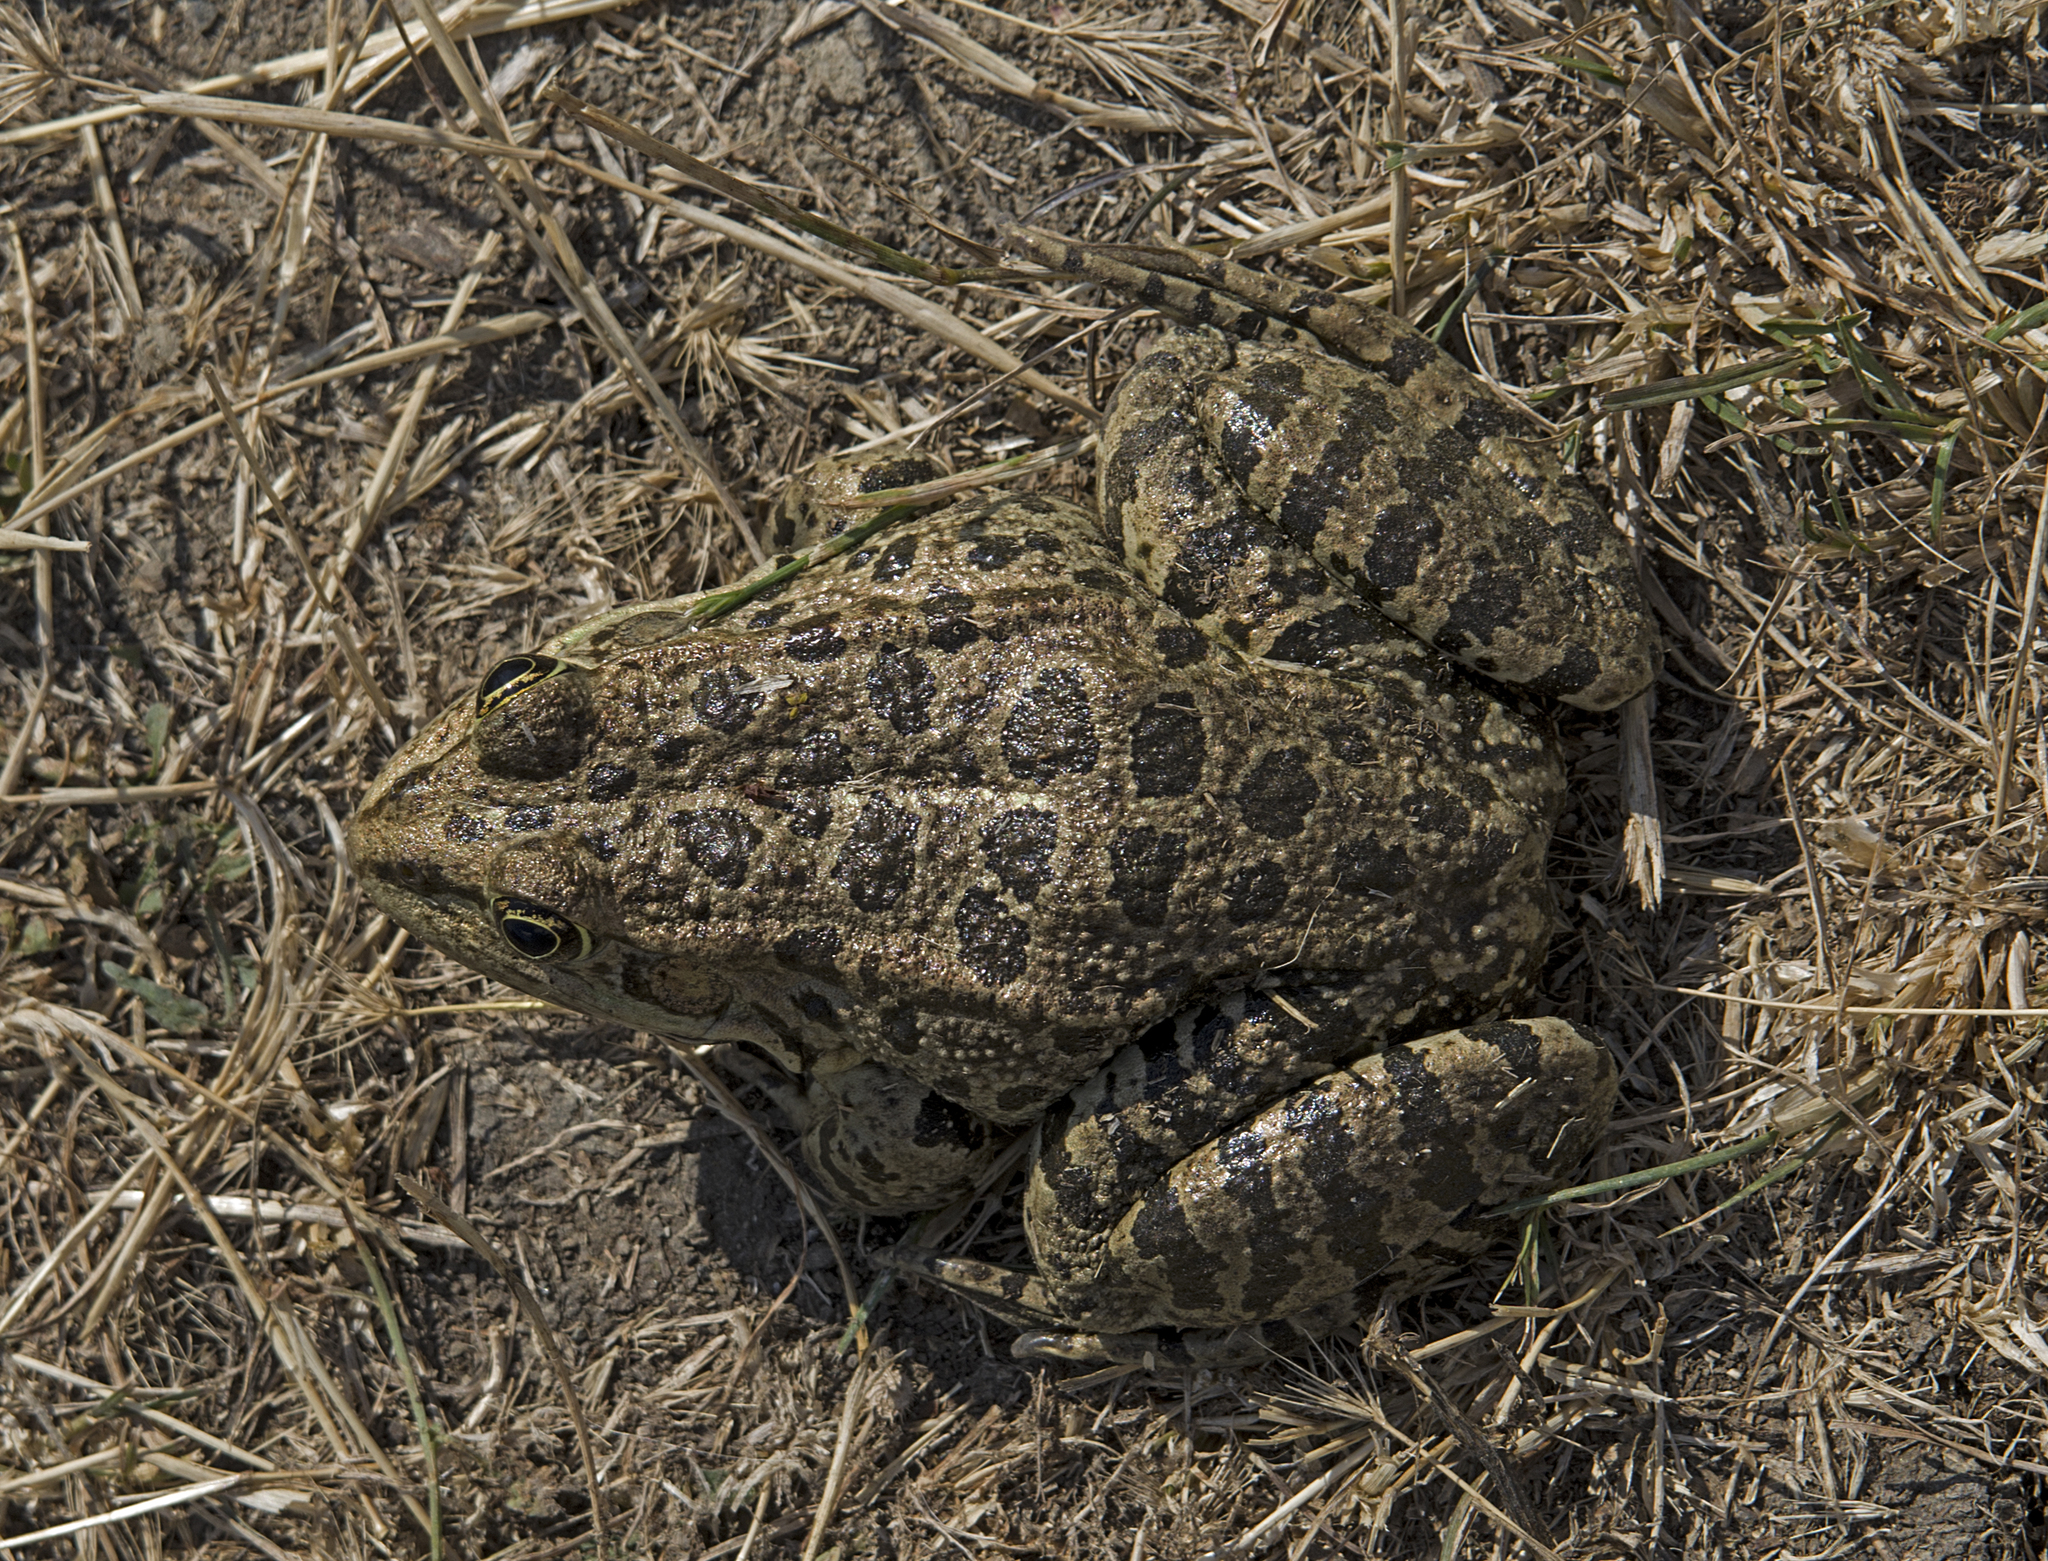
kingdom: Animalia
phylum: Chordata
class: Amphibia
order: Anura
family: Ranidae
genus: Pelophylax
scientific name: Pelophylax ridibundus
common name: Marsh frog
